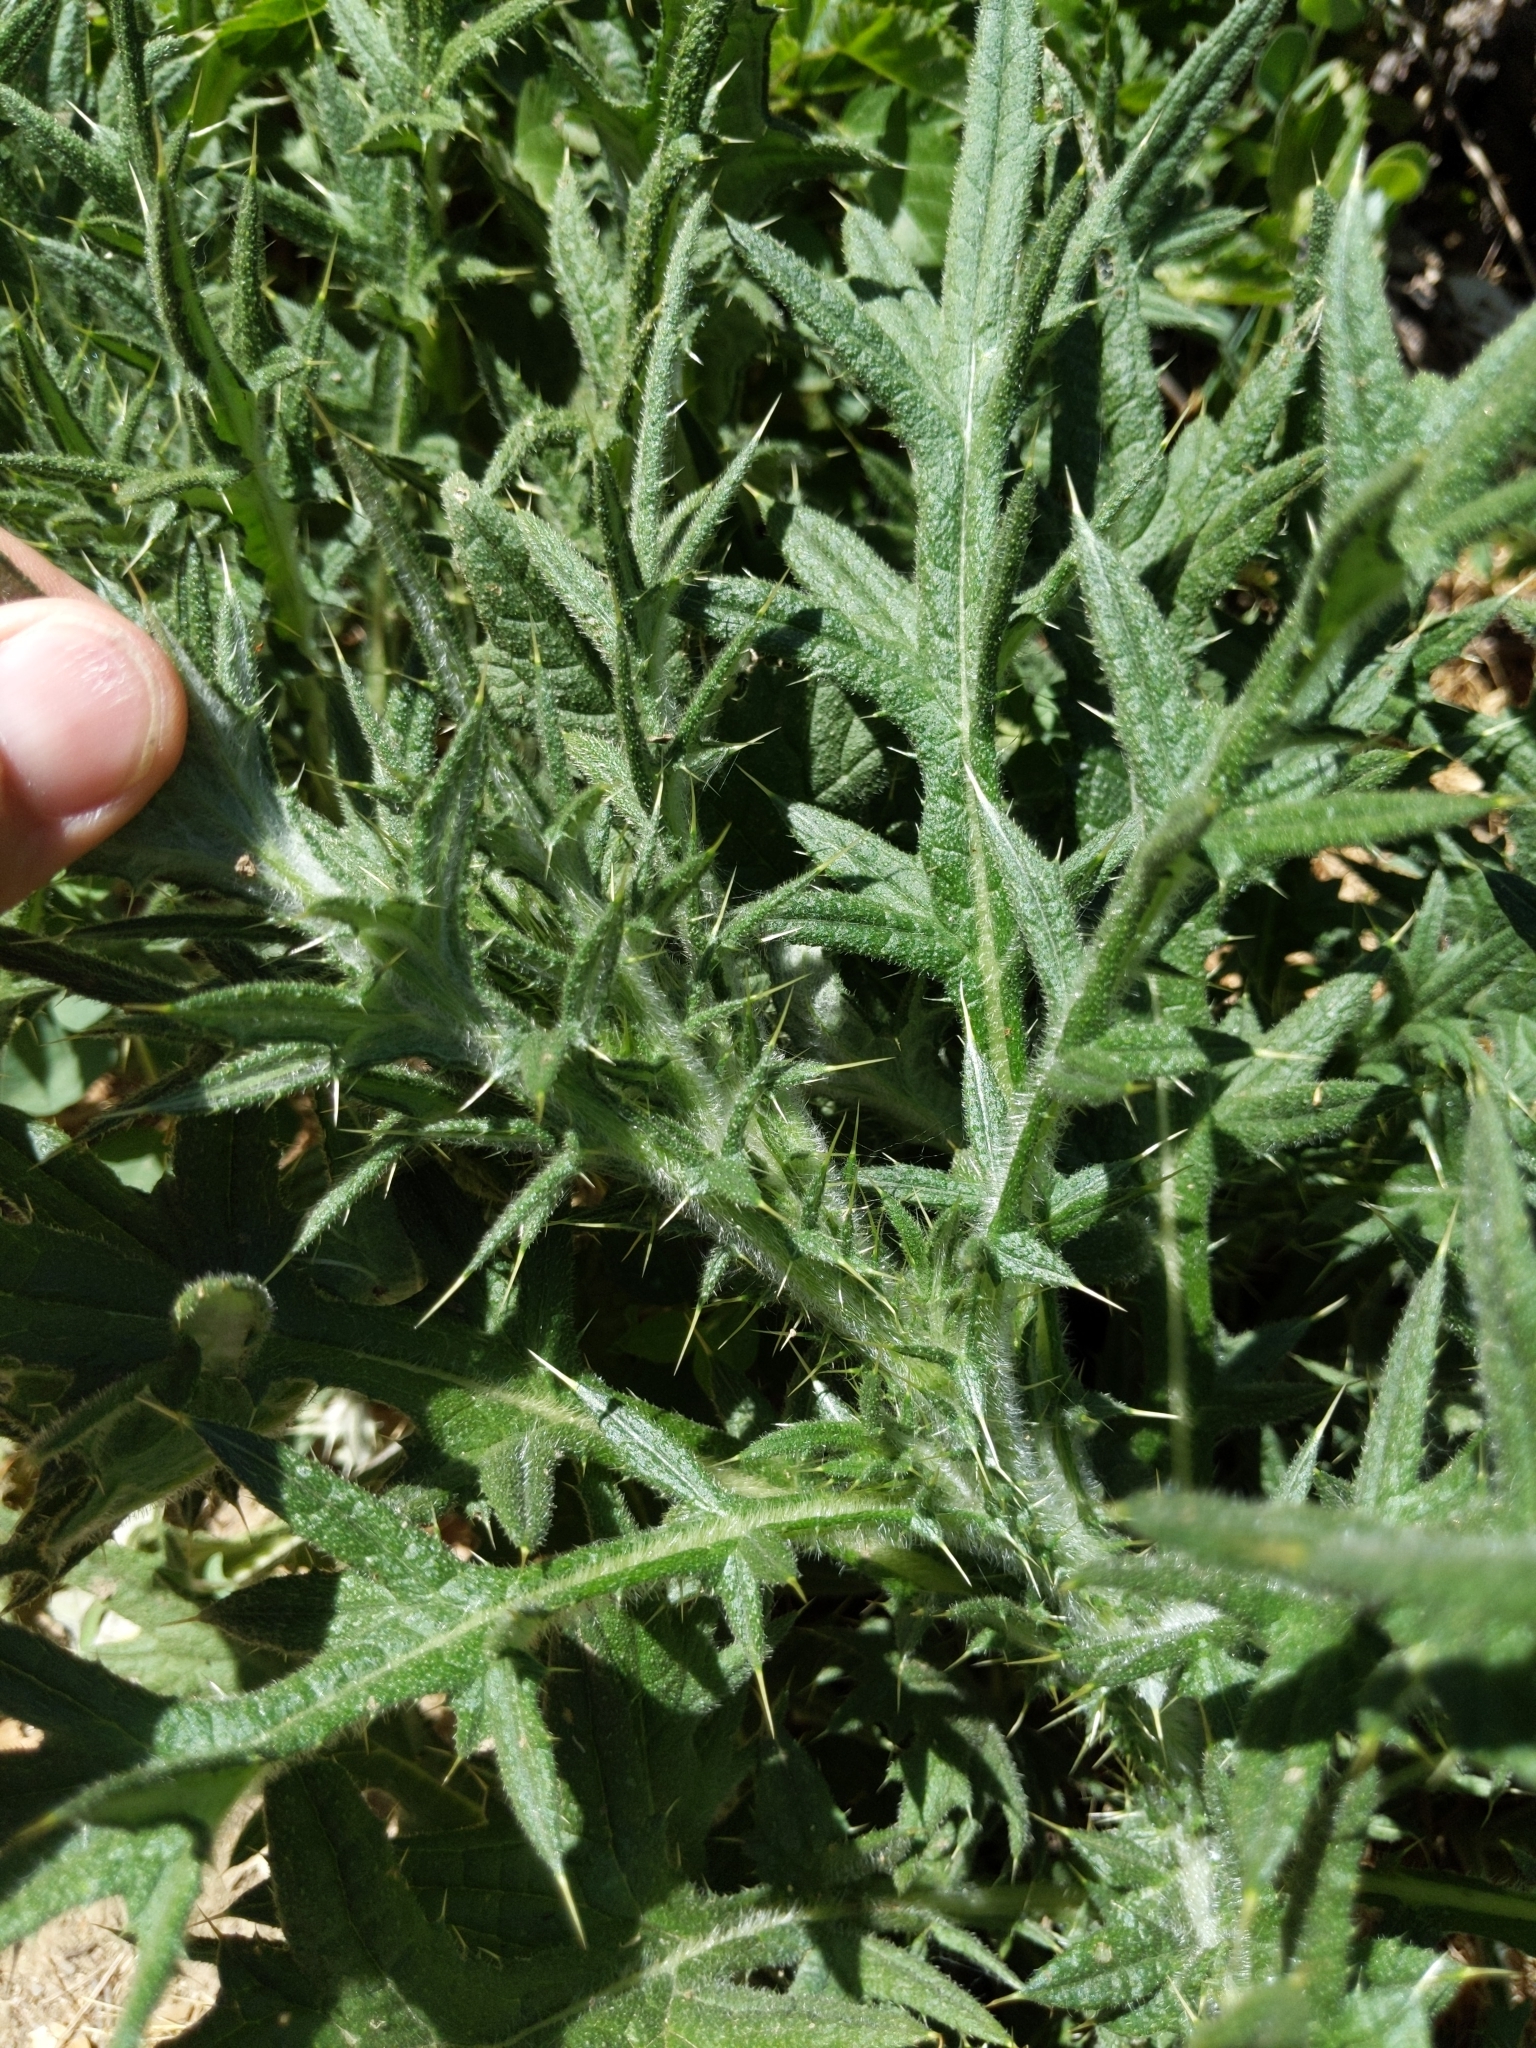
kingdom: Plantae
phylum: Tracheophyta
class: Magnoliopsida
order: Asterales
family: Asteraceae
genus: Cirsium
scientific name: Cirsium vulgare
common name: Bull thistle
